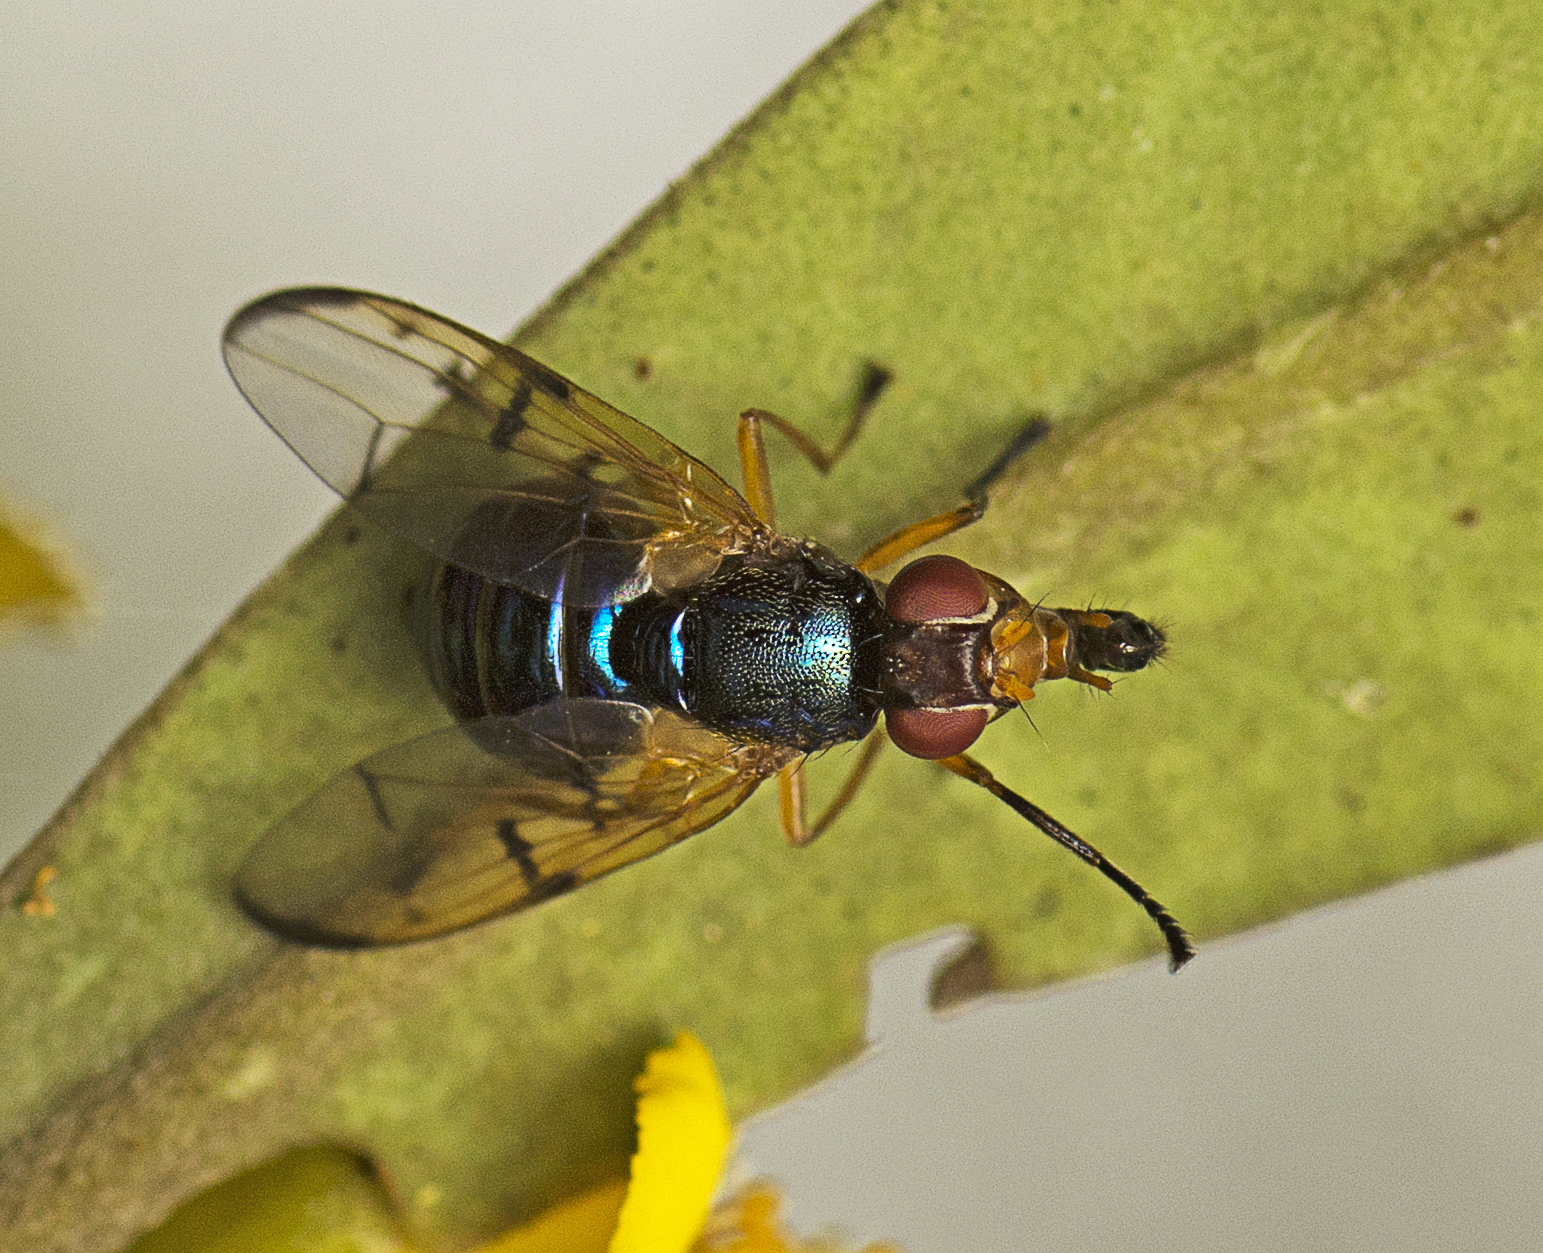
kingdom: Animalia
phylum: Arthropoda
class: Insecta
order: Diptera
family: Platystomatidae
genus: Lamprogaster
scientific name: Lamprogaster imperialis
